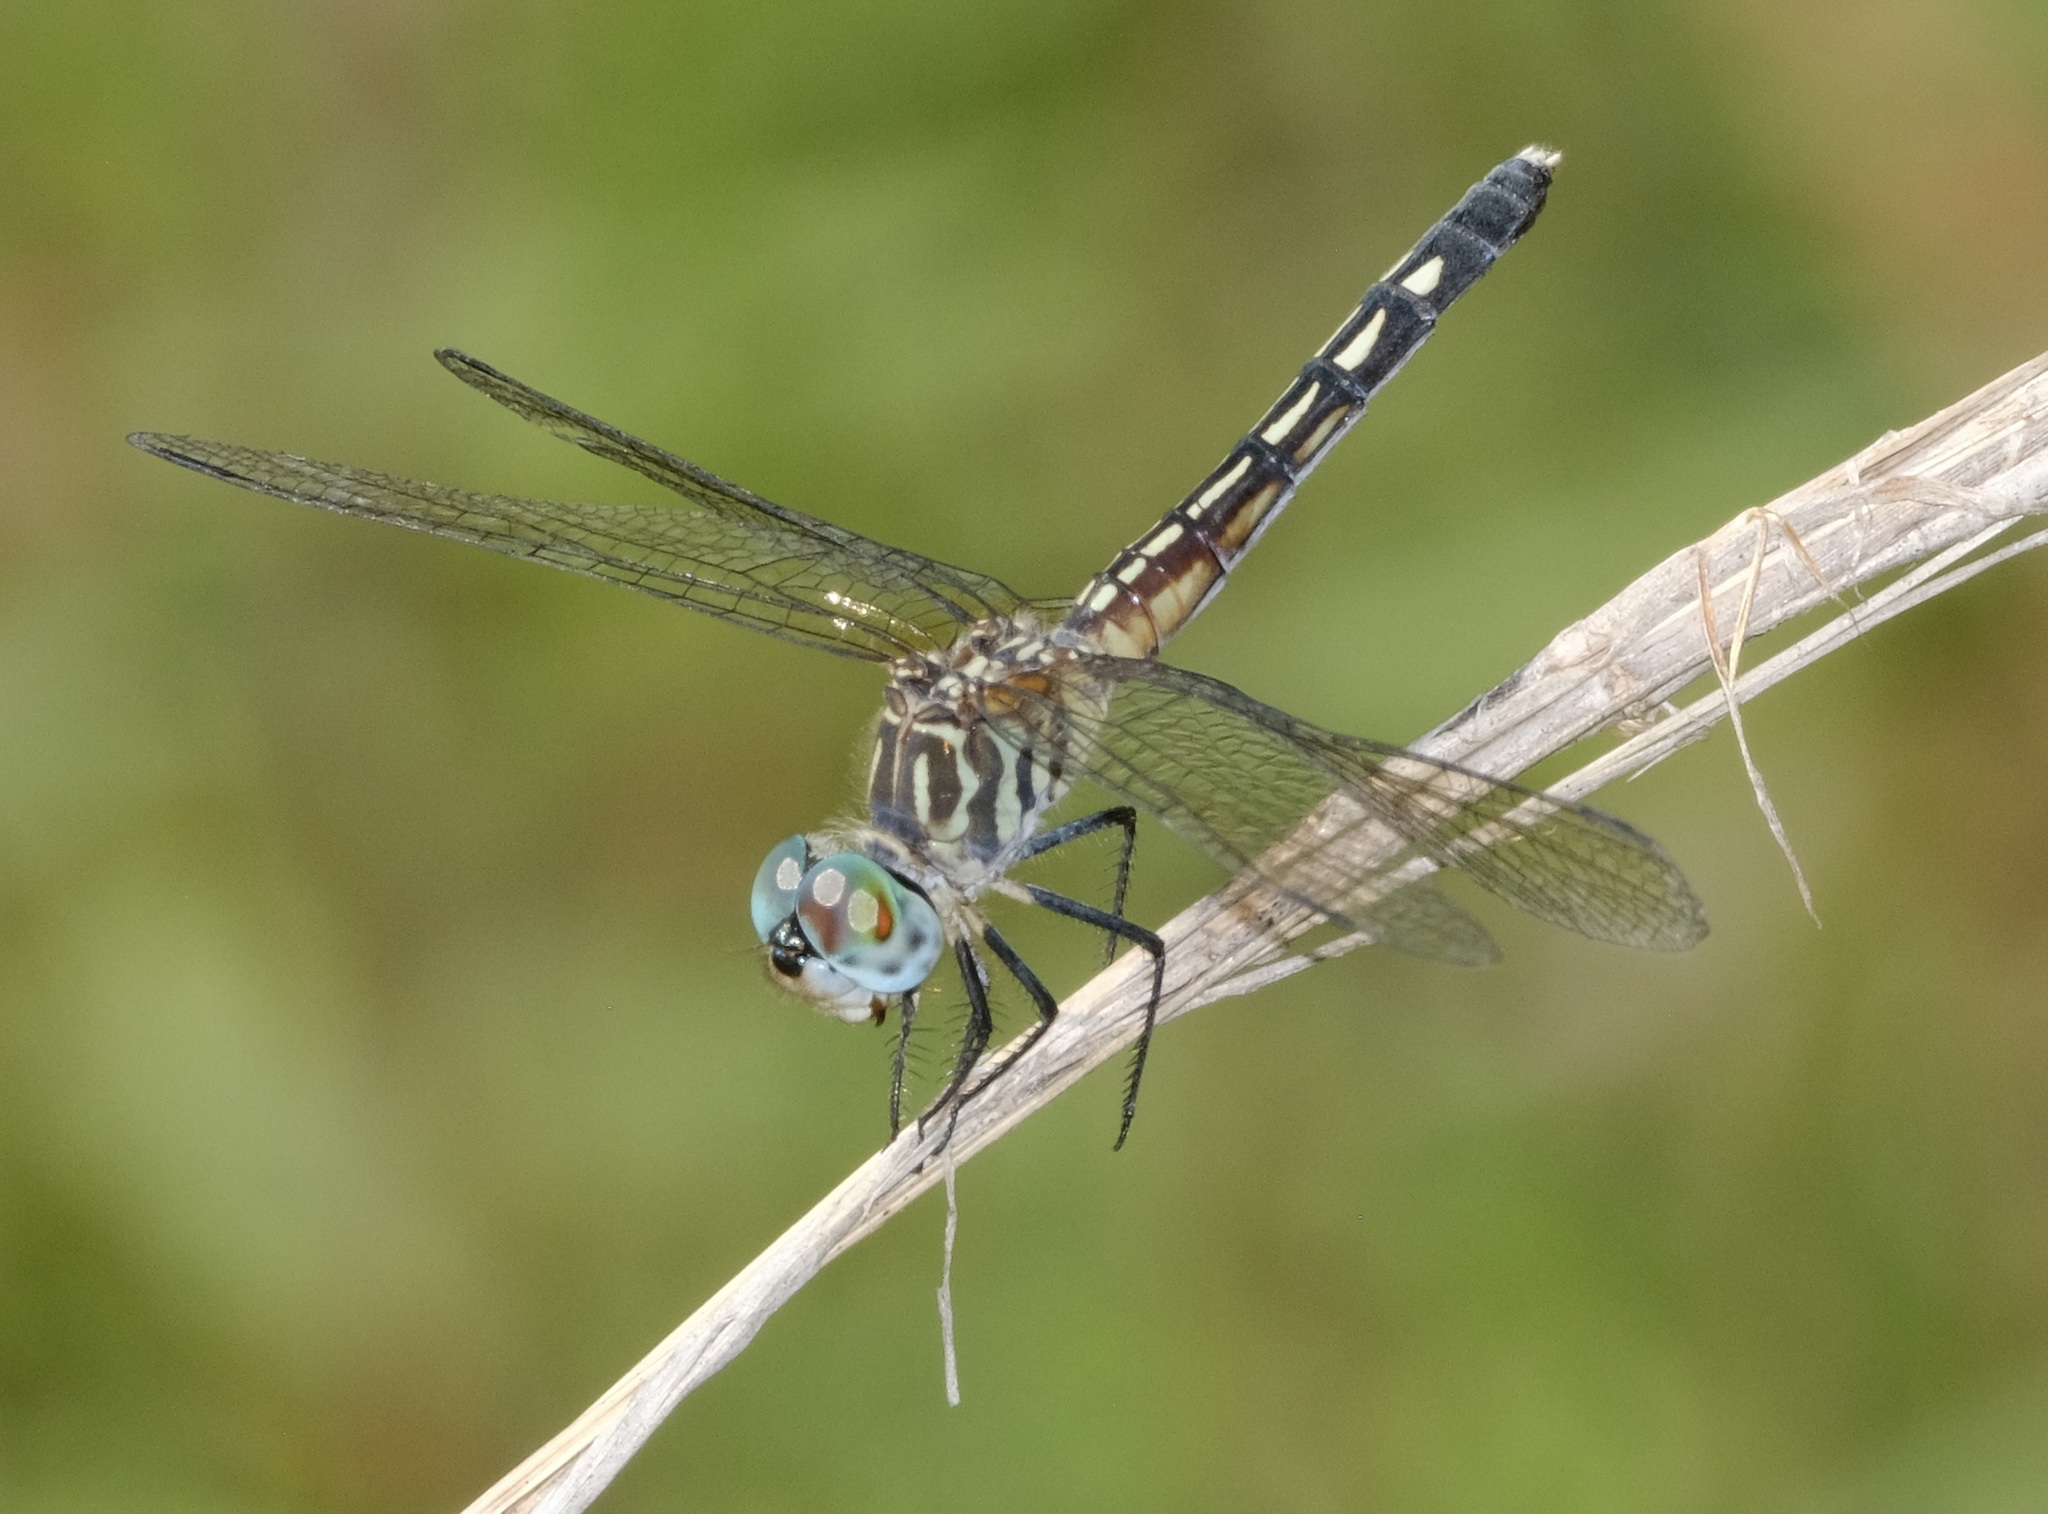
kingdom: Animalia
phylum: Arthropoda
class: Insecta
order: Odonata
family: Libellulidae
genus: Pachydiplax
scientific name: Pachydiplax longipennis
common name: Blue dasher
